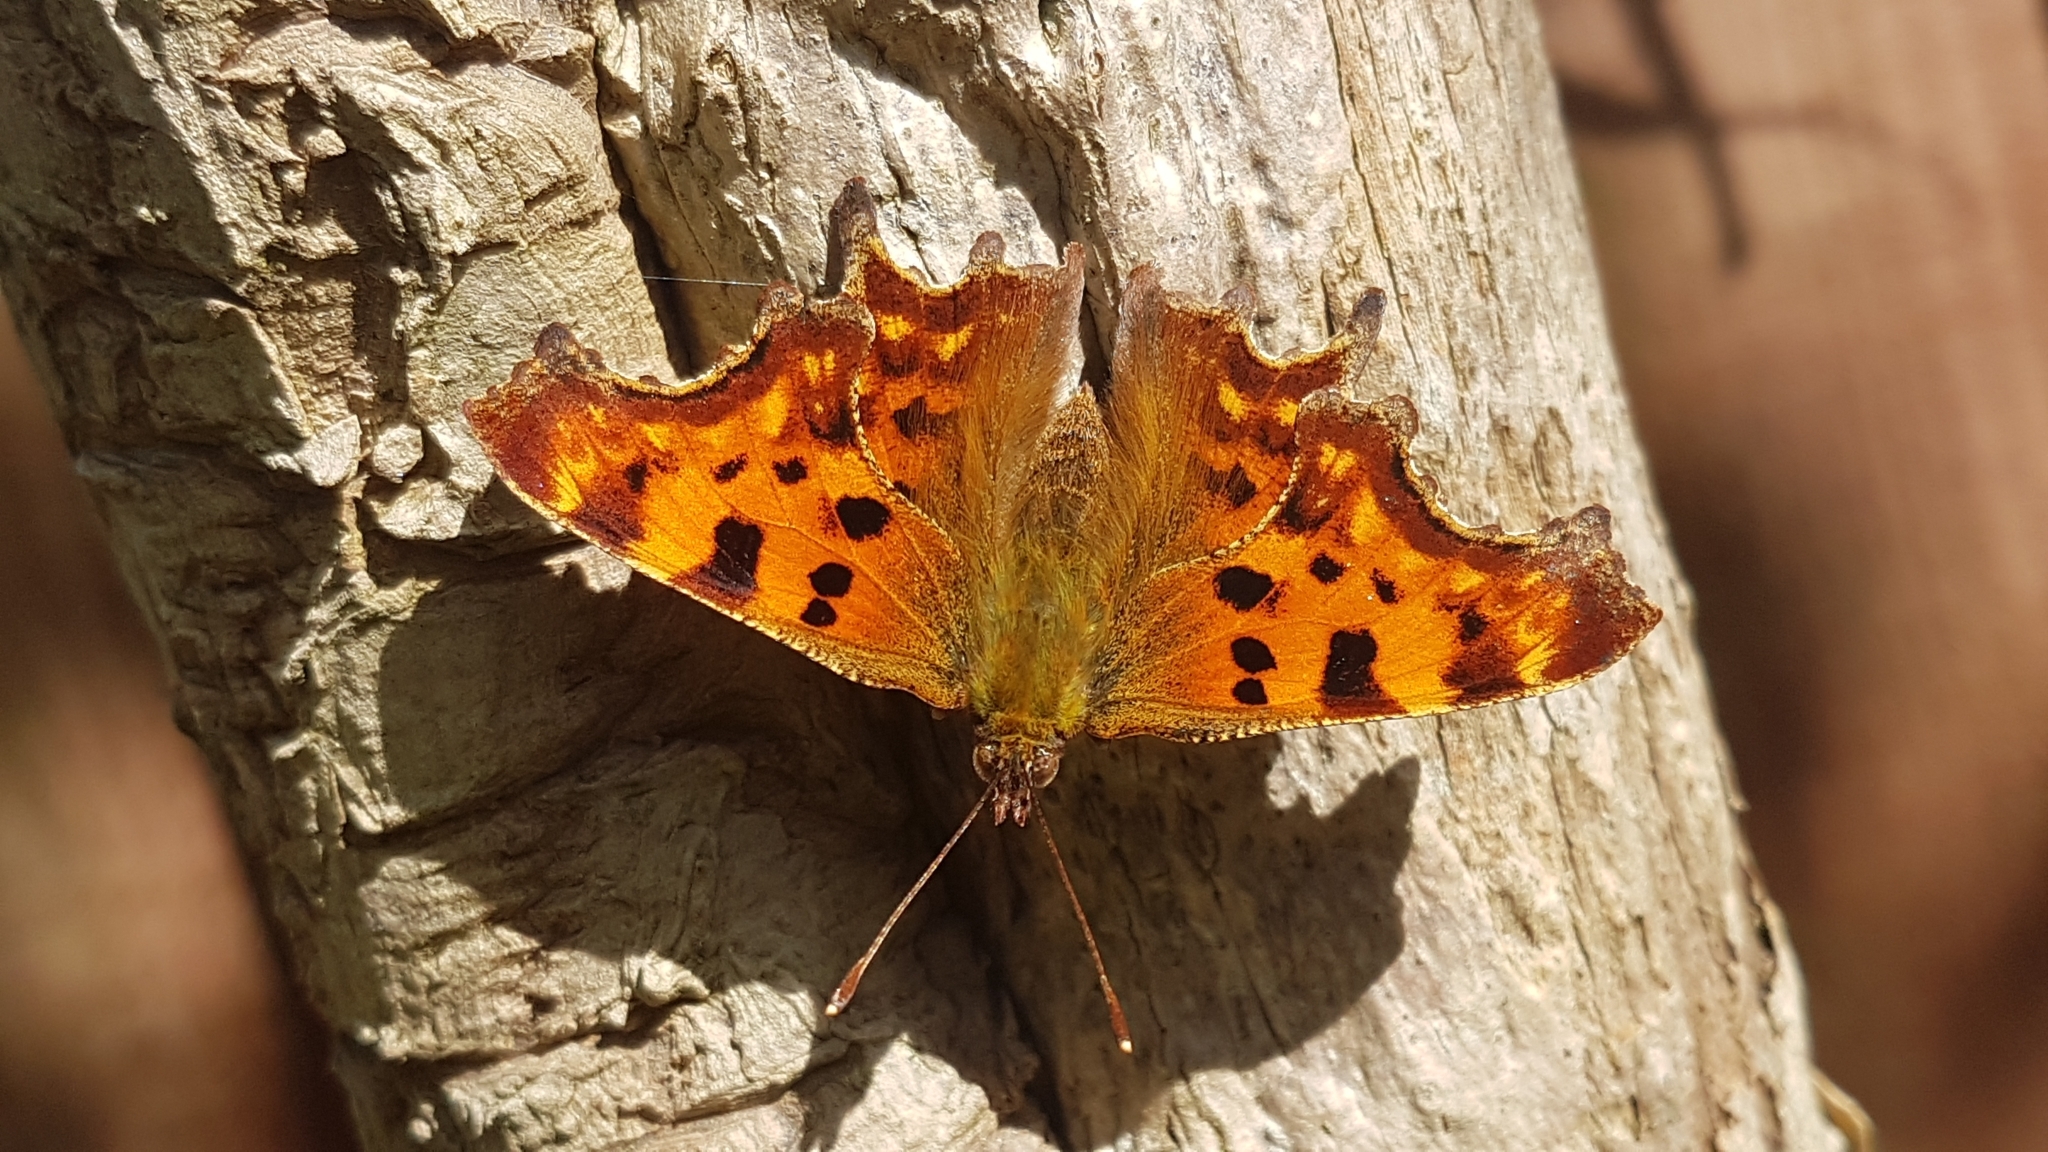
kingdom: Animalia
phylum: Arthropoda
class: Insecta
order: Lepidoptera
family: Nymphalidae
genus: Polygonia
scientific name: Polygonia c-album
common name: Comma
